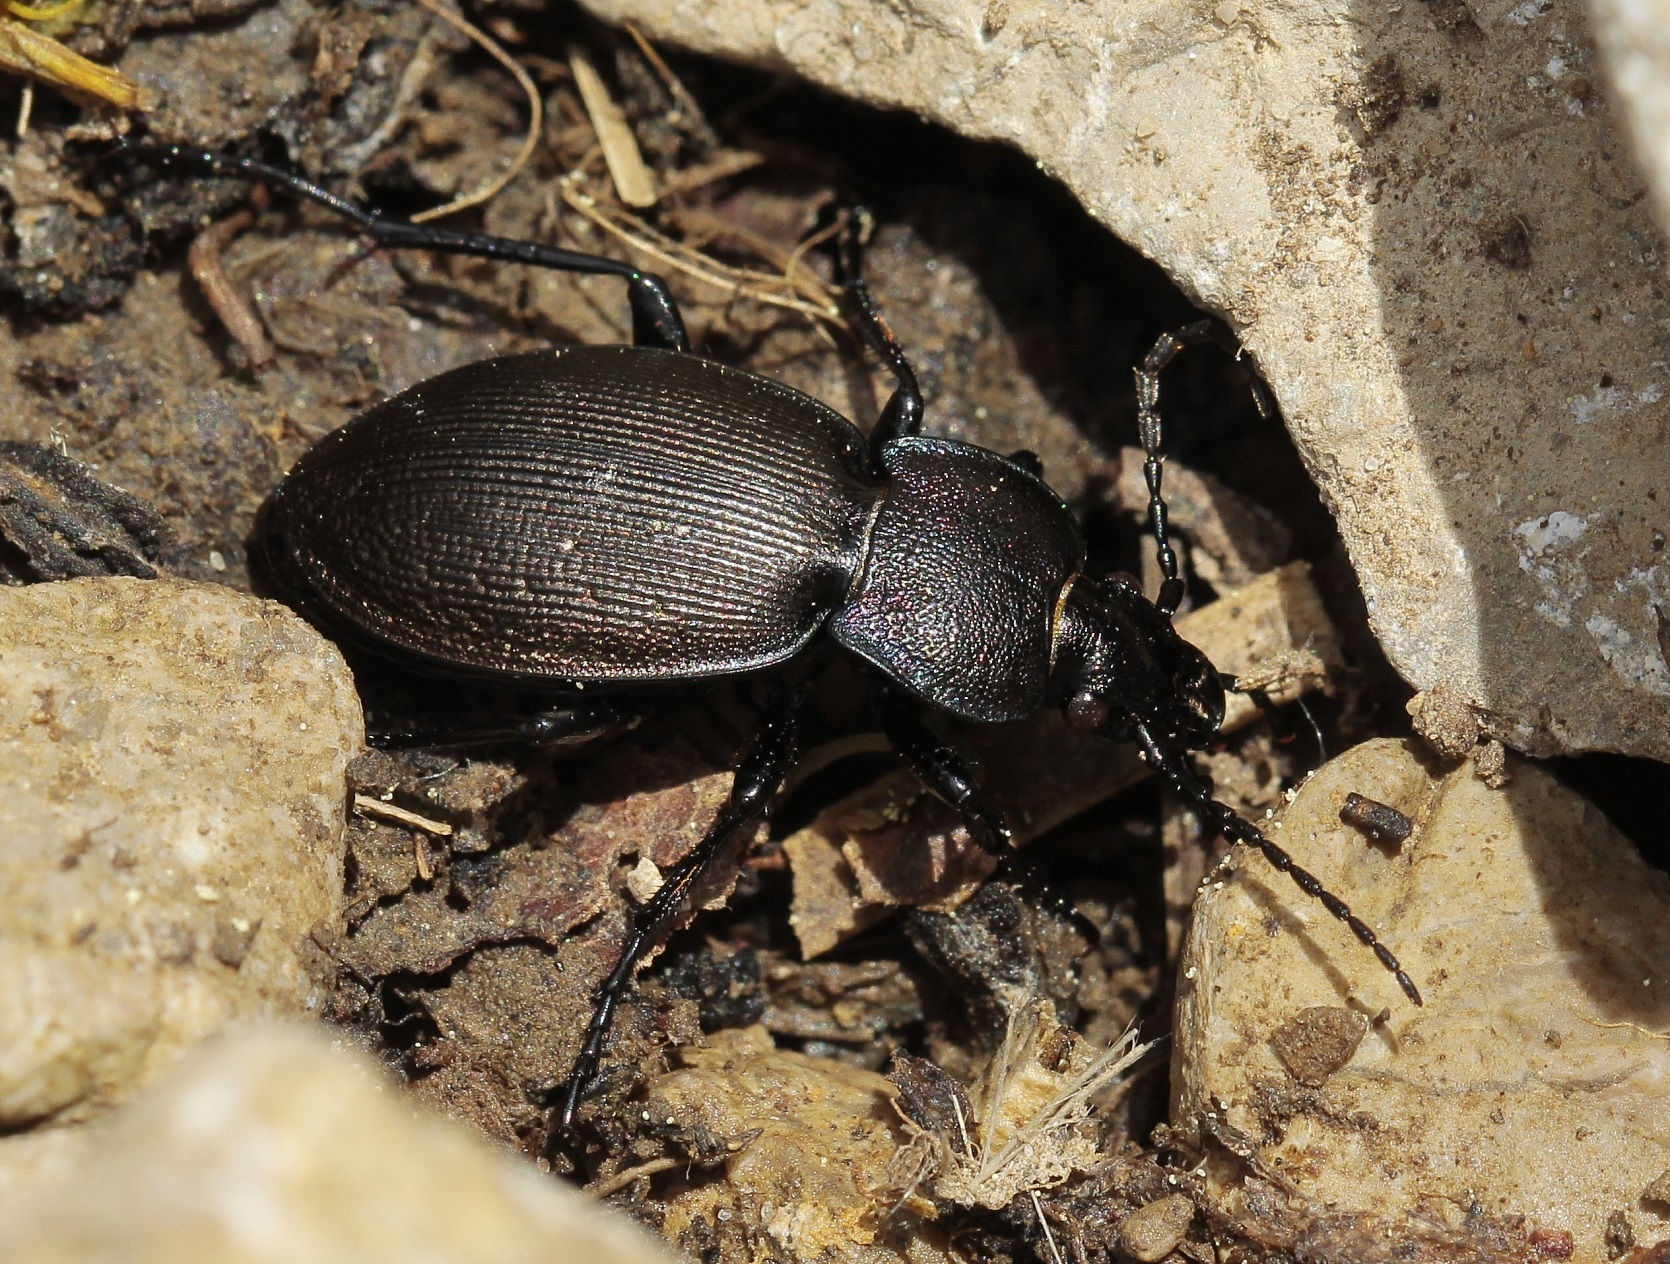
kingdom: Animalia
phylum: Arthropoda
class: Insecta
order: Coleoptera
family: Carabidae
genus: Carabus
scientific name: Carabus decolor
